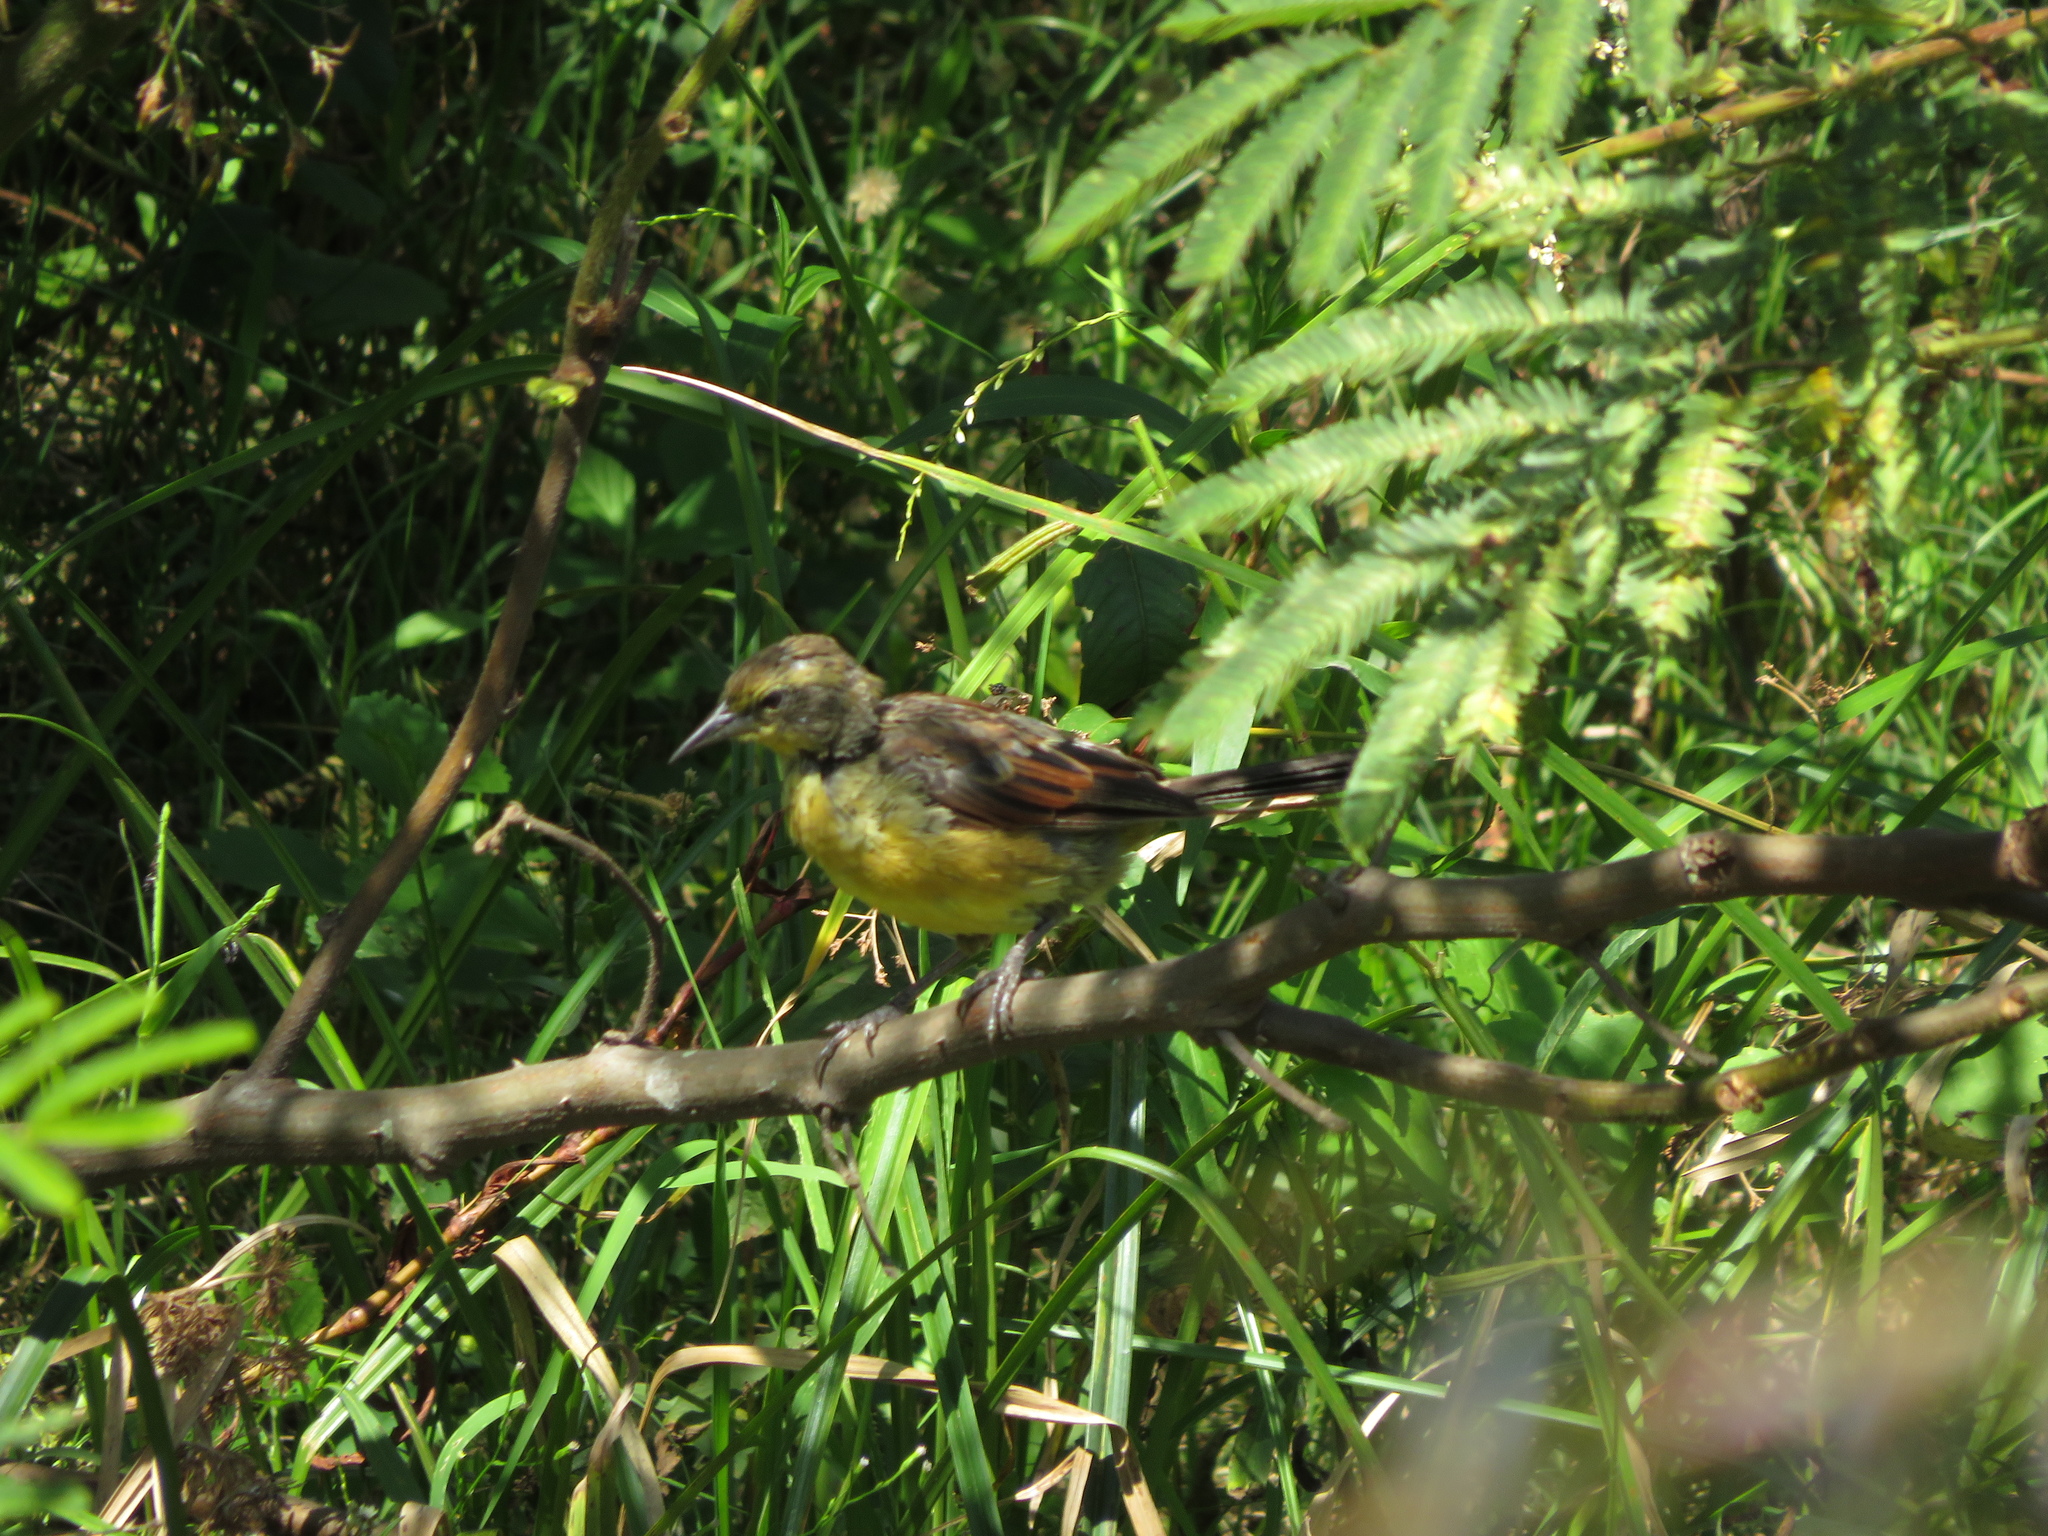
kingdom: Animalia
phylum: Chordata
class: Aves
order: Passeriformes
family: Icteridae
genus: Agelasticus
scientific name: Agelasticus cyanopus
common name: Unicolored blackbird
